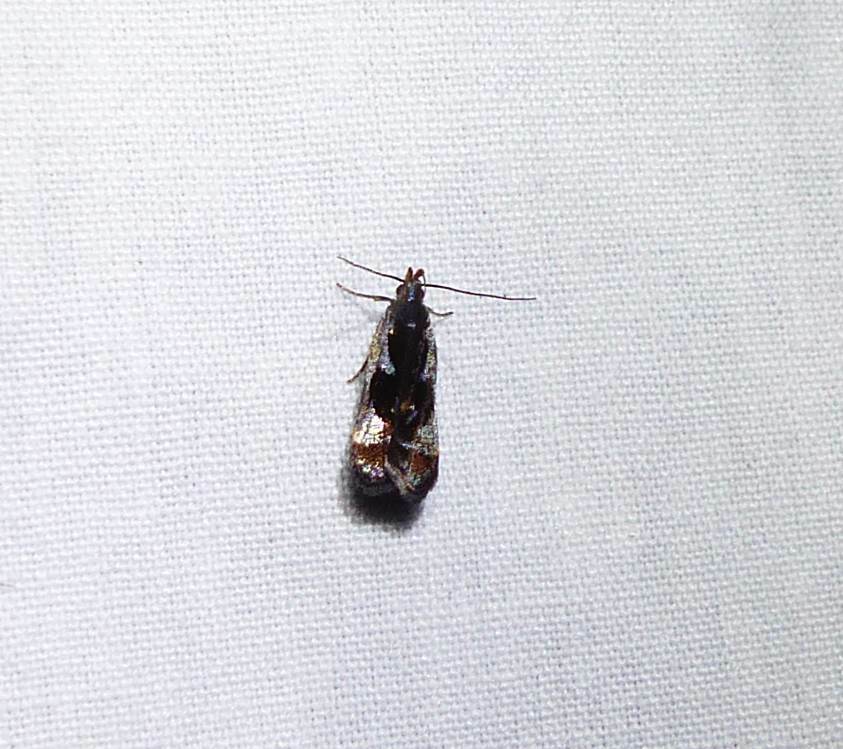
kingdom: Animalia
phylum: Arthropoda
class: Insecta
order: Lepidoptera
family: Gelechiidae
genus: Dichomeris
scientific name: Dichomeris ochripalpella
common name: Shining dichomeris moth
